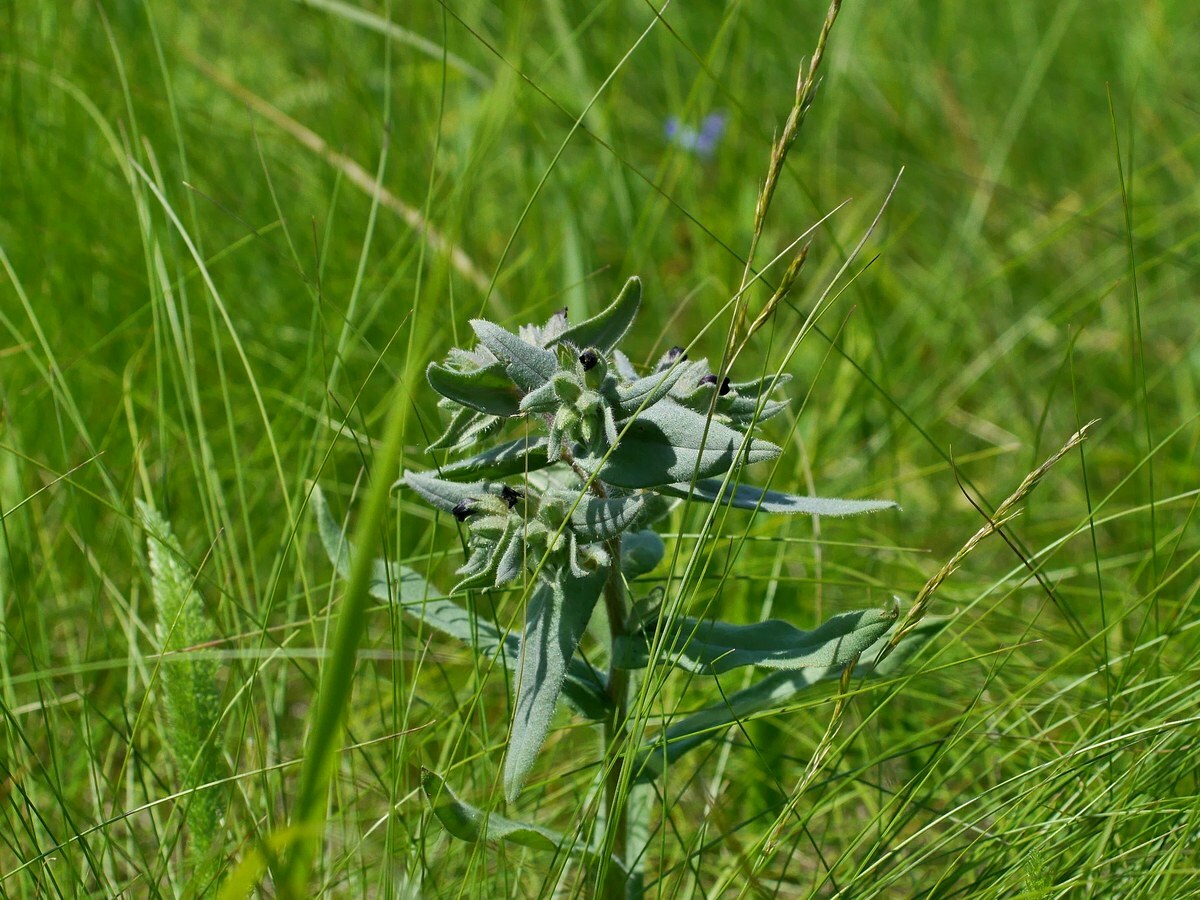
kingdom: Plantae
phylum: Tracheophyta
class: Magnoliopsida
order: Boraginales
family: Boraginaceae
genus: Nonea
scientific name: Nonea pulla
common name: Brown nonea
